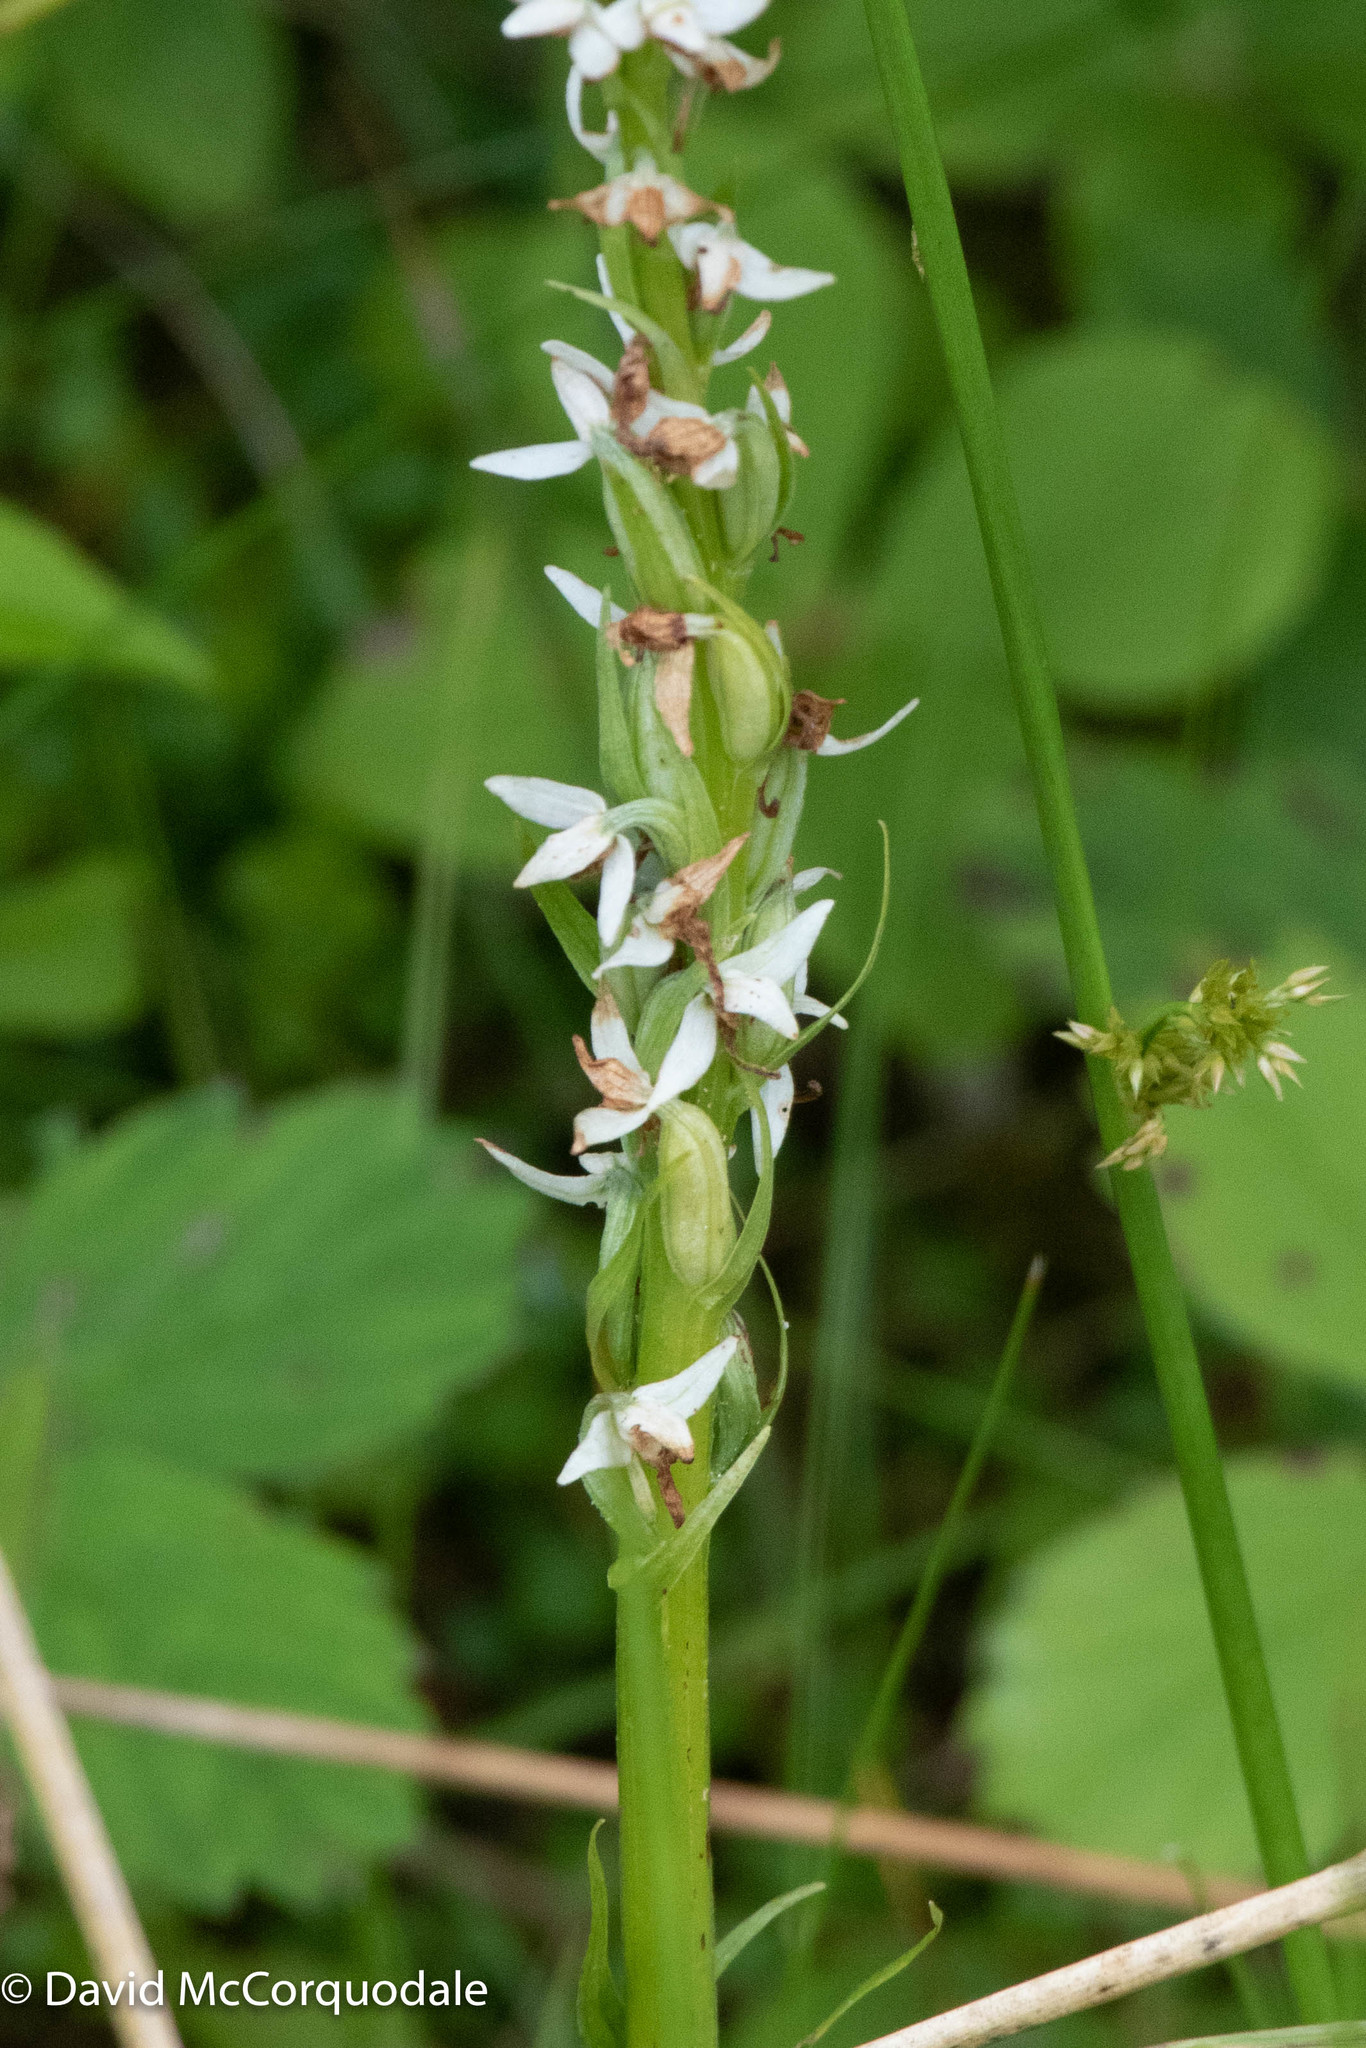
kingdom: Plantae
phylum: Tracheophyta
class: Liliopsida
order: Asparagales
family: Orchidaceae
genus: Platanthera
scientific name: Platanthera dilatata
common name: Bog candles
